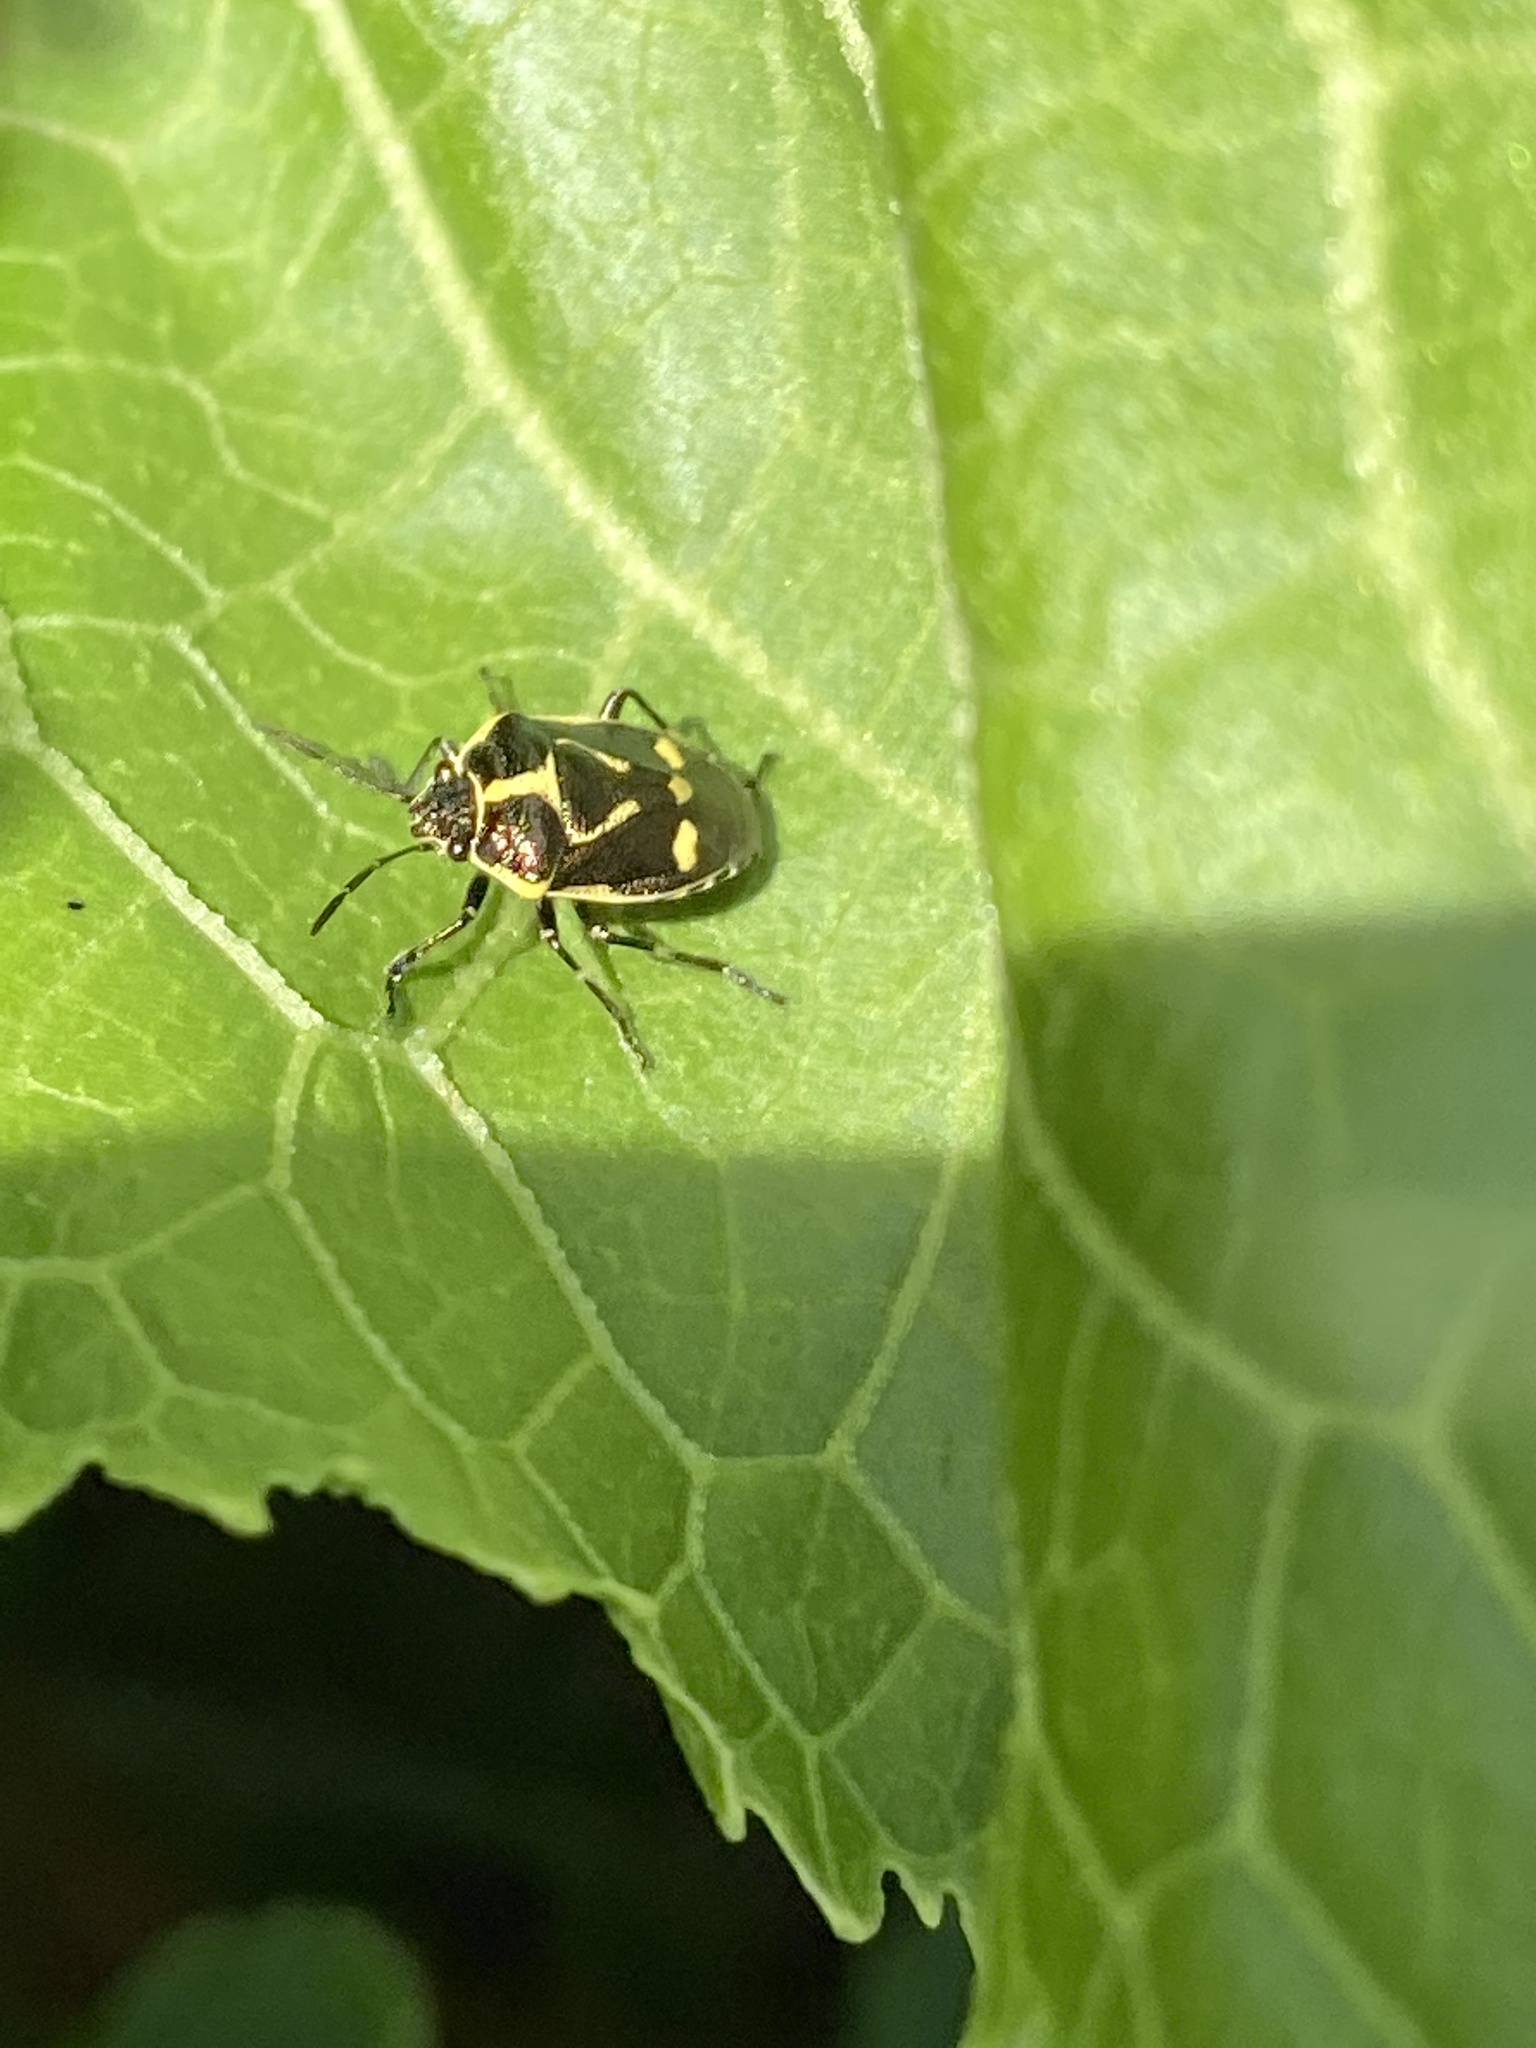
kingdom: Animalia
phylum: Arthropoda
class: Insecta
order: Hemiptera
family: Pentatomidae
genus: Eurydema
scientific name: Eurydema oleracea
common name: Cabbage bug
